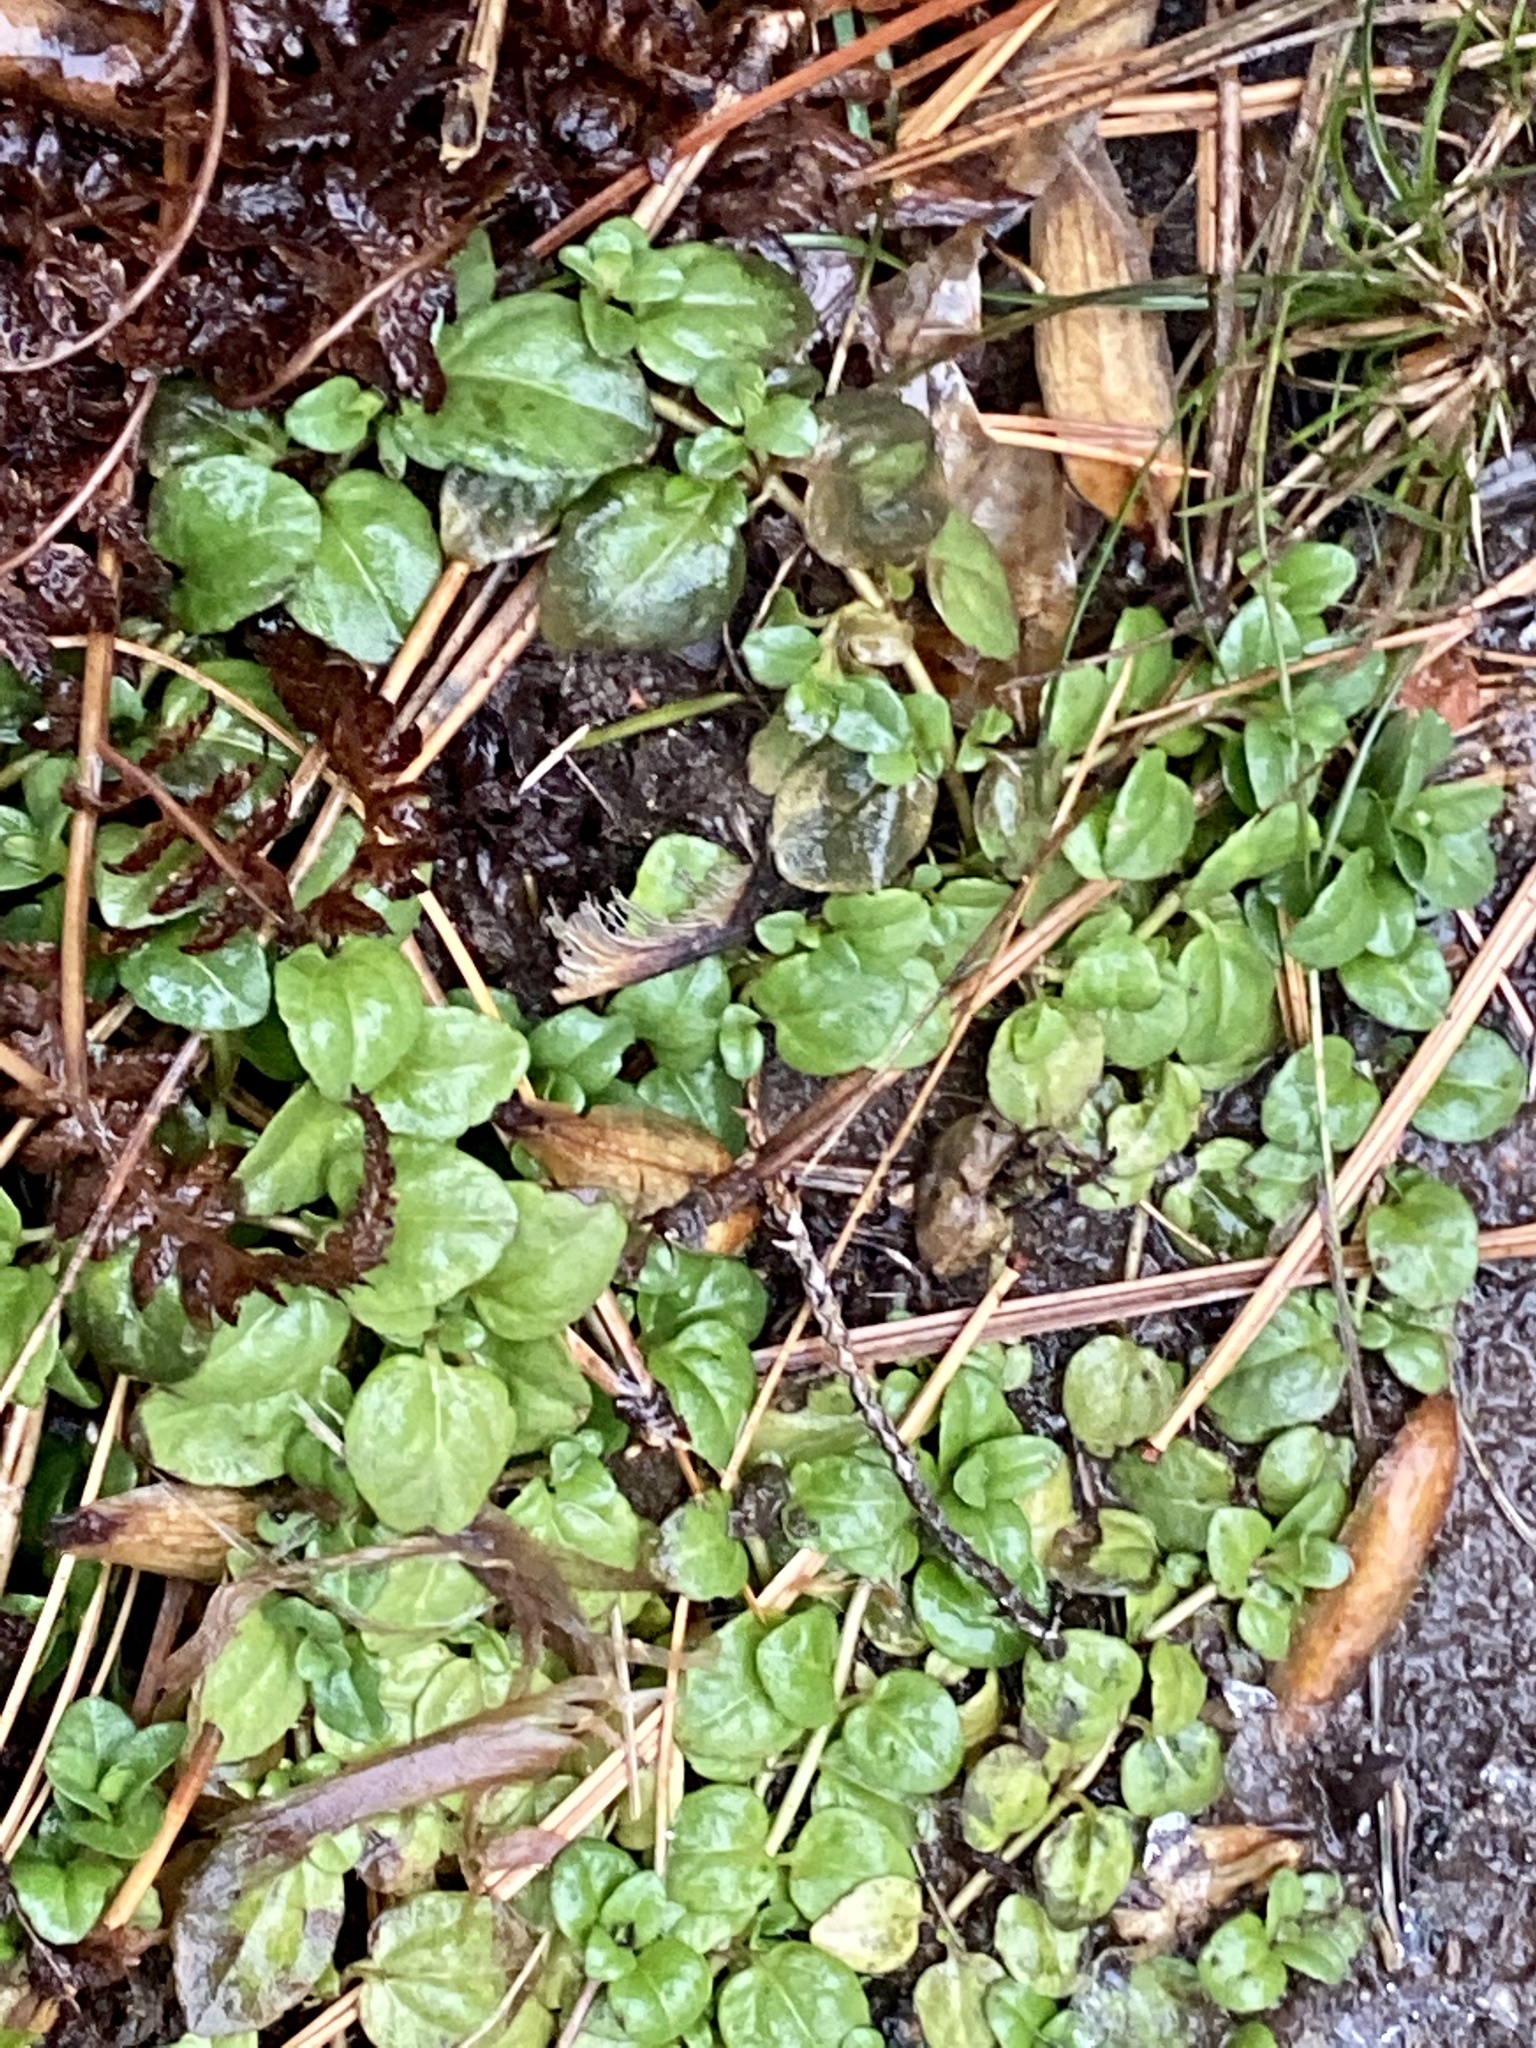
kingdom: Plantae
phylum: Tracheophyta
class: Magnoliopsida
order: Lamiales
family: Plantaginaceae
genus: Veronica
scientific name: Veronica serpyllifolia
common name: Thyme-leaved speedwell
